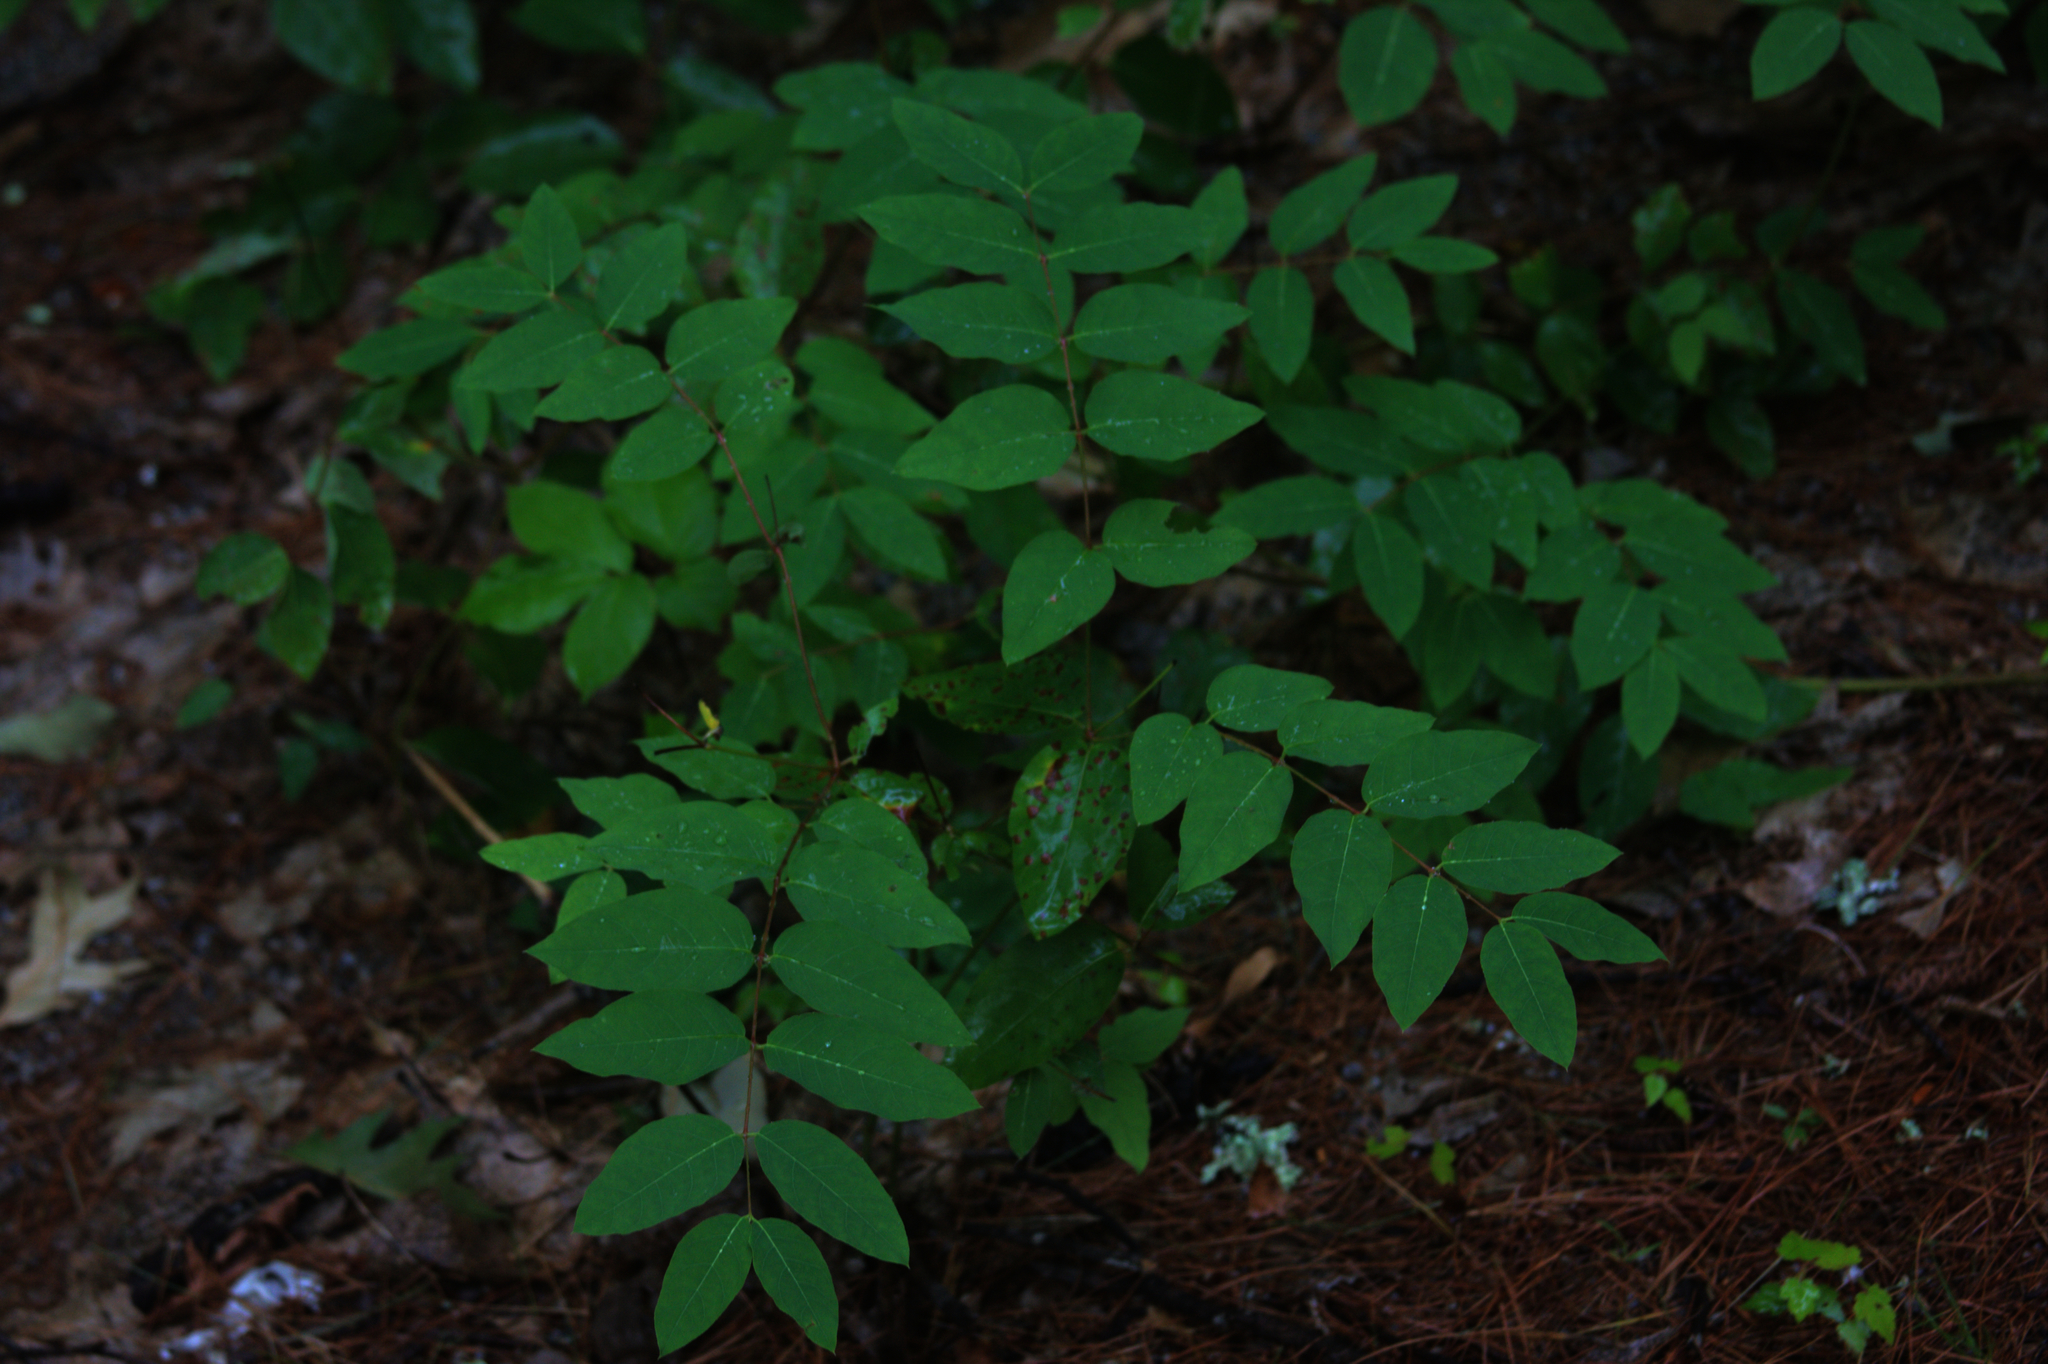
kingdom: Plantae
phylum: Tracheophyta
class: Magnoliopsida
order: Gentianales
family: Apocynaceae
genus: Apocynum
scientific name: Apocynum androsaemifolium
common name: Spreading dogbane
